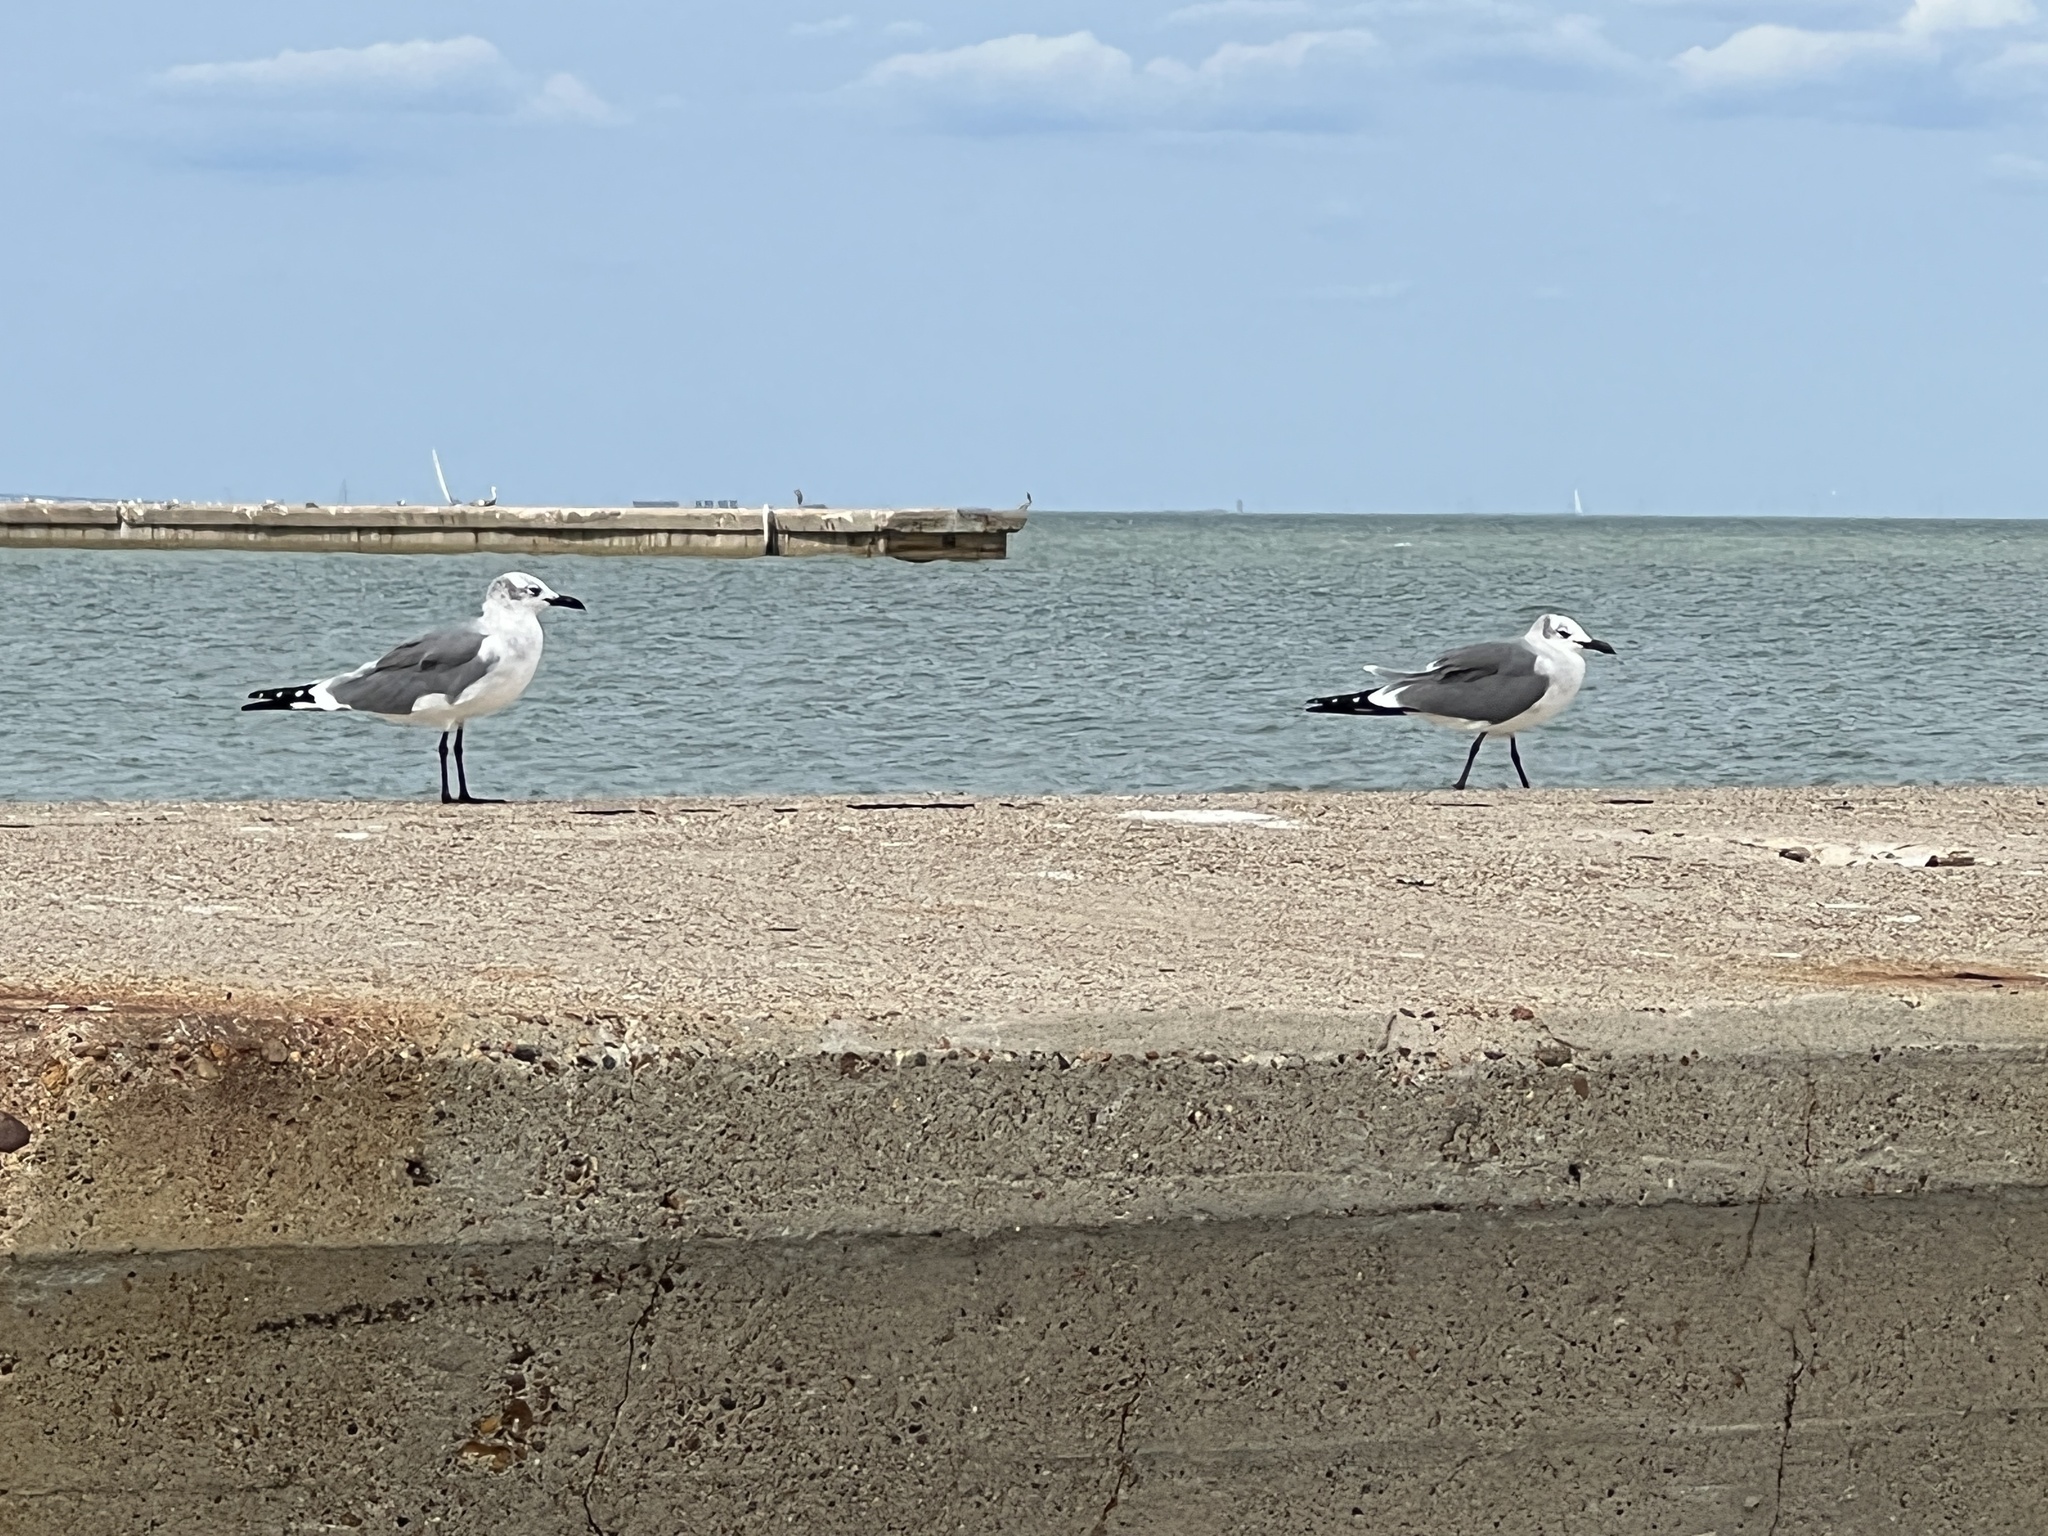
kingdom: Animalia
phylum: Chordata
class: Aves
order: Charadriiformes
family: Laridae
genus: Leucophaeus
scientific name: Leucophaeus atricilla
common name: Laughing gull
